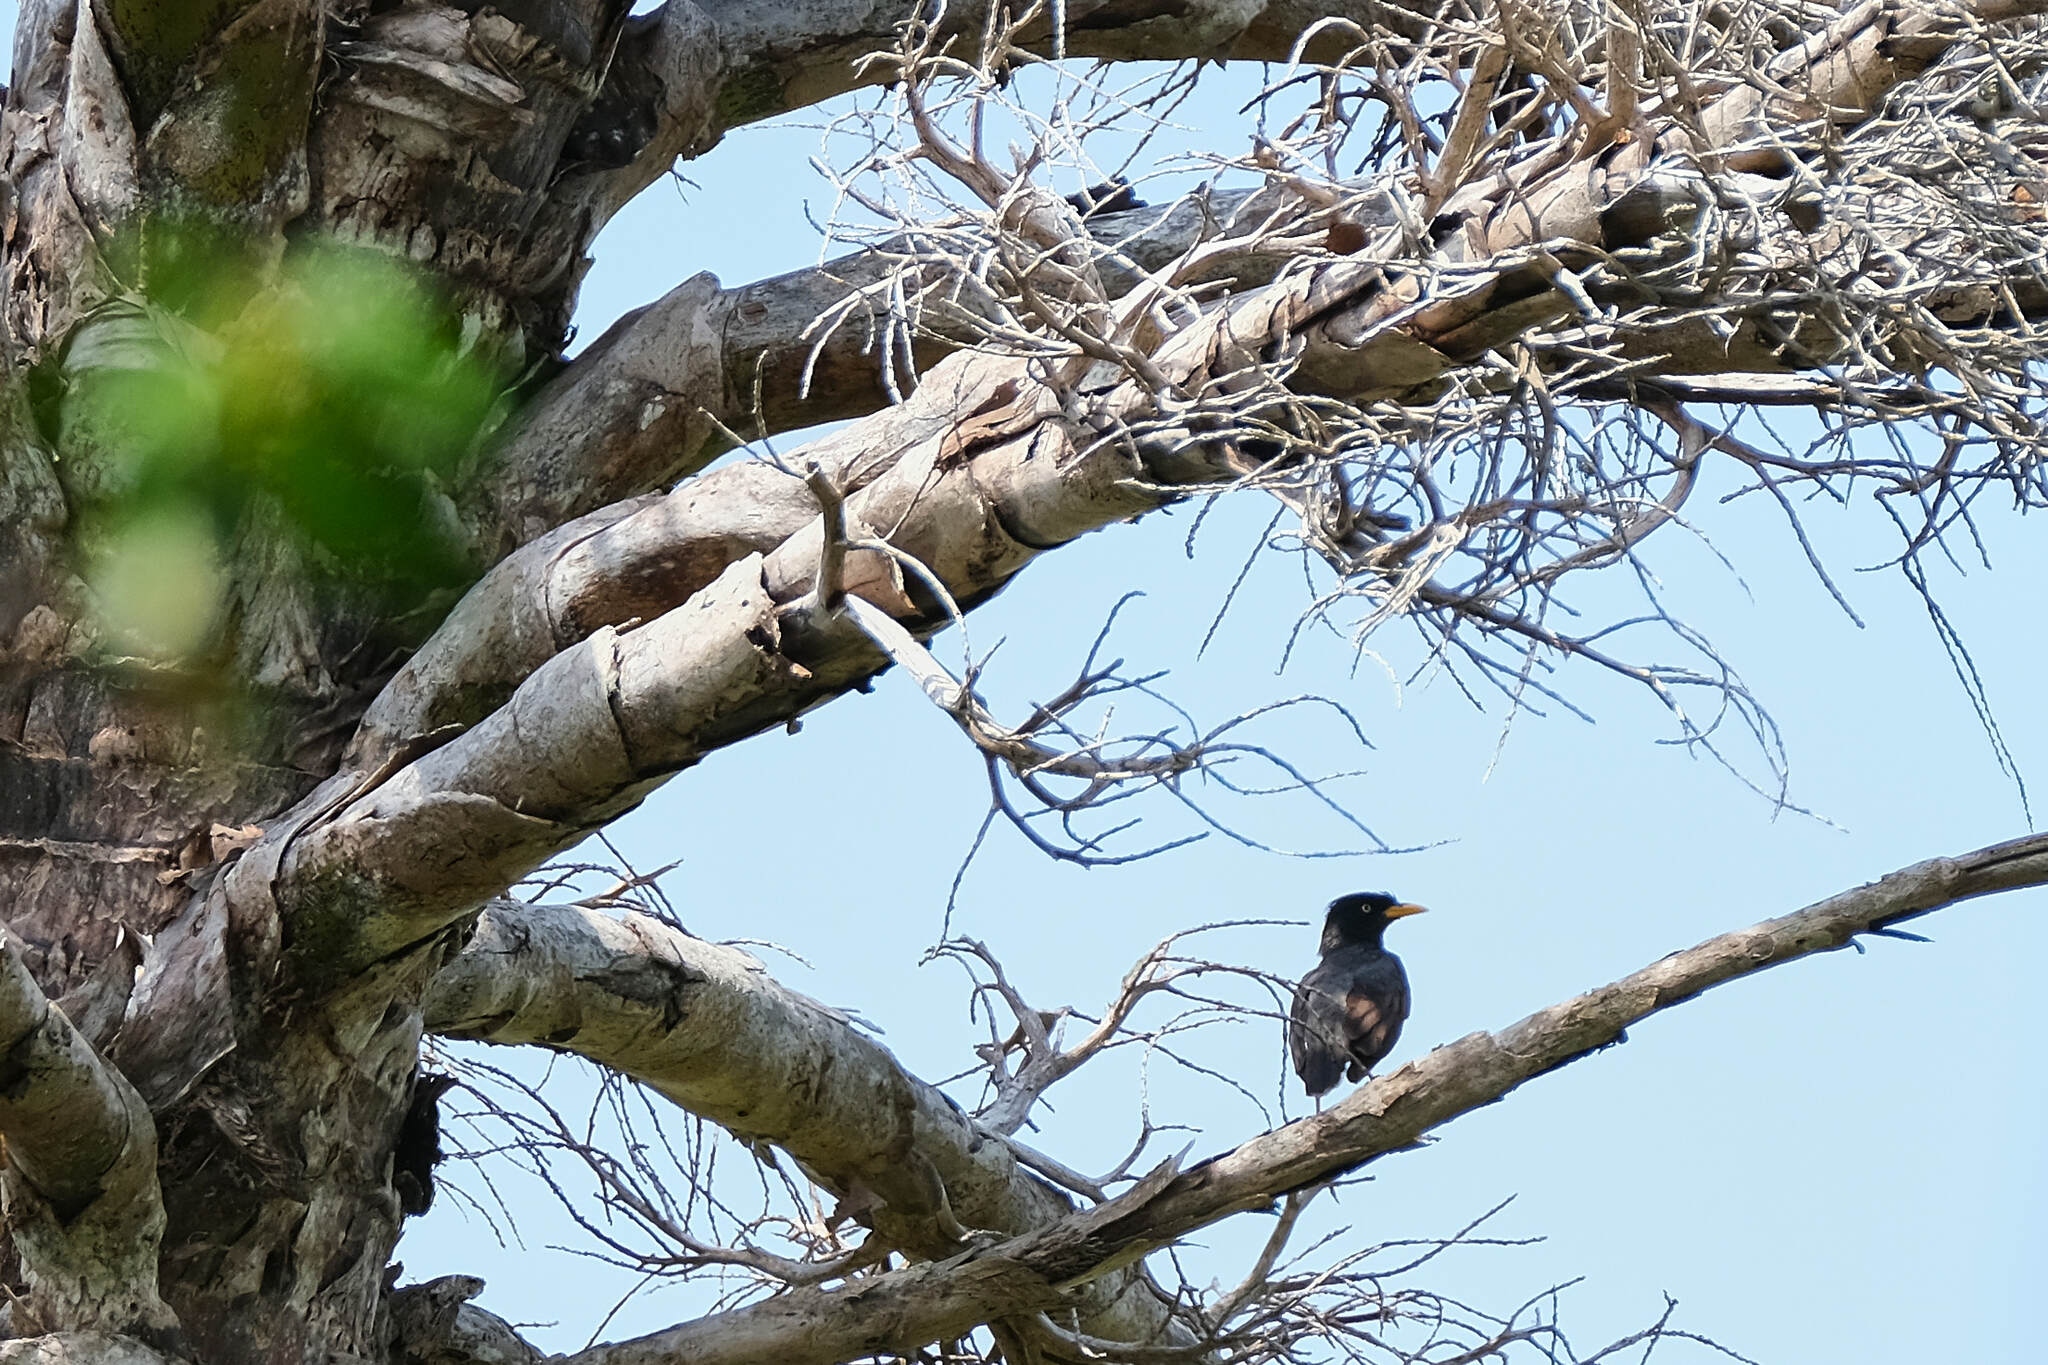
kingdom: Animalia
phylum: Chordata
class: Aves
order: Passeriformes
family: Sturnidae
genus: Acridotheres
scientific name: Acridotheres javanicus
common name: Javan myna
